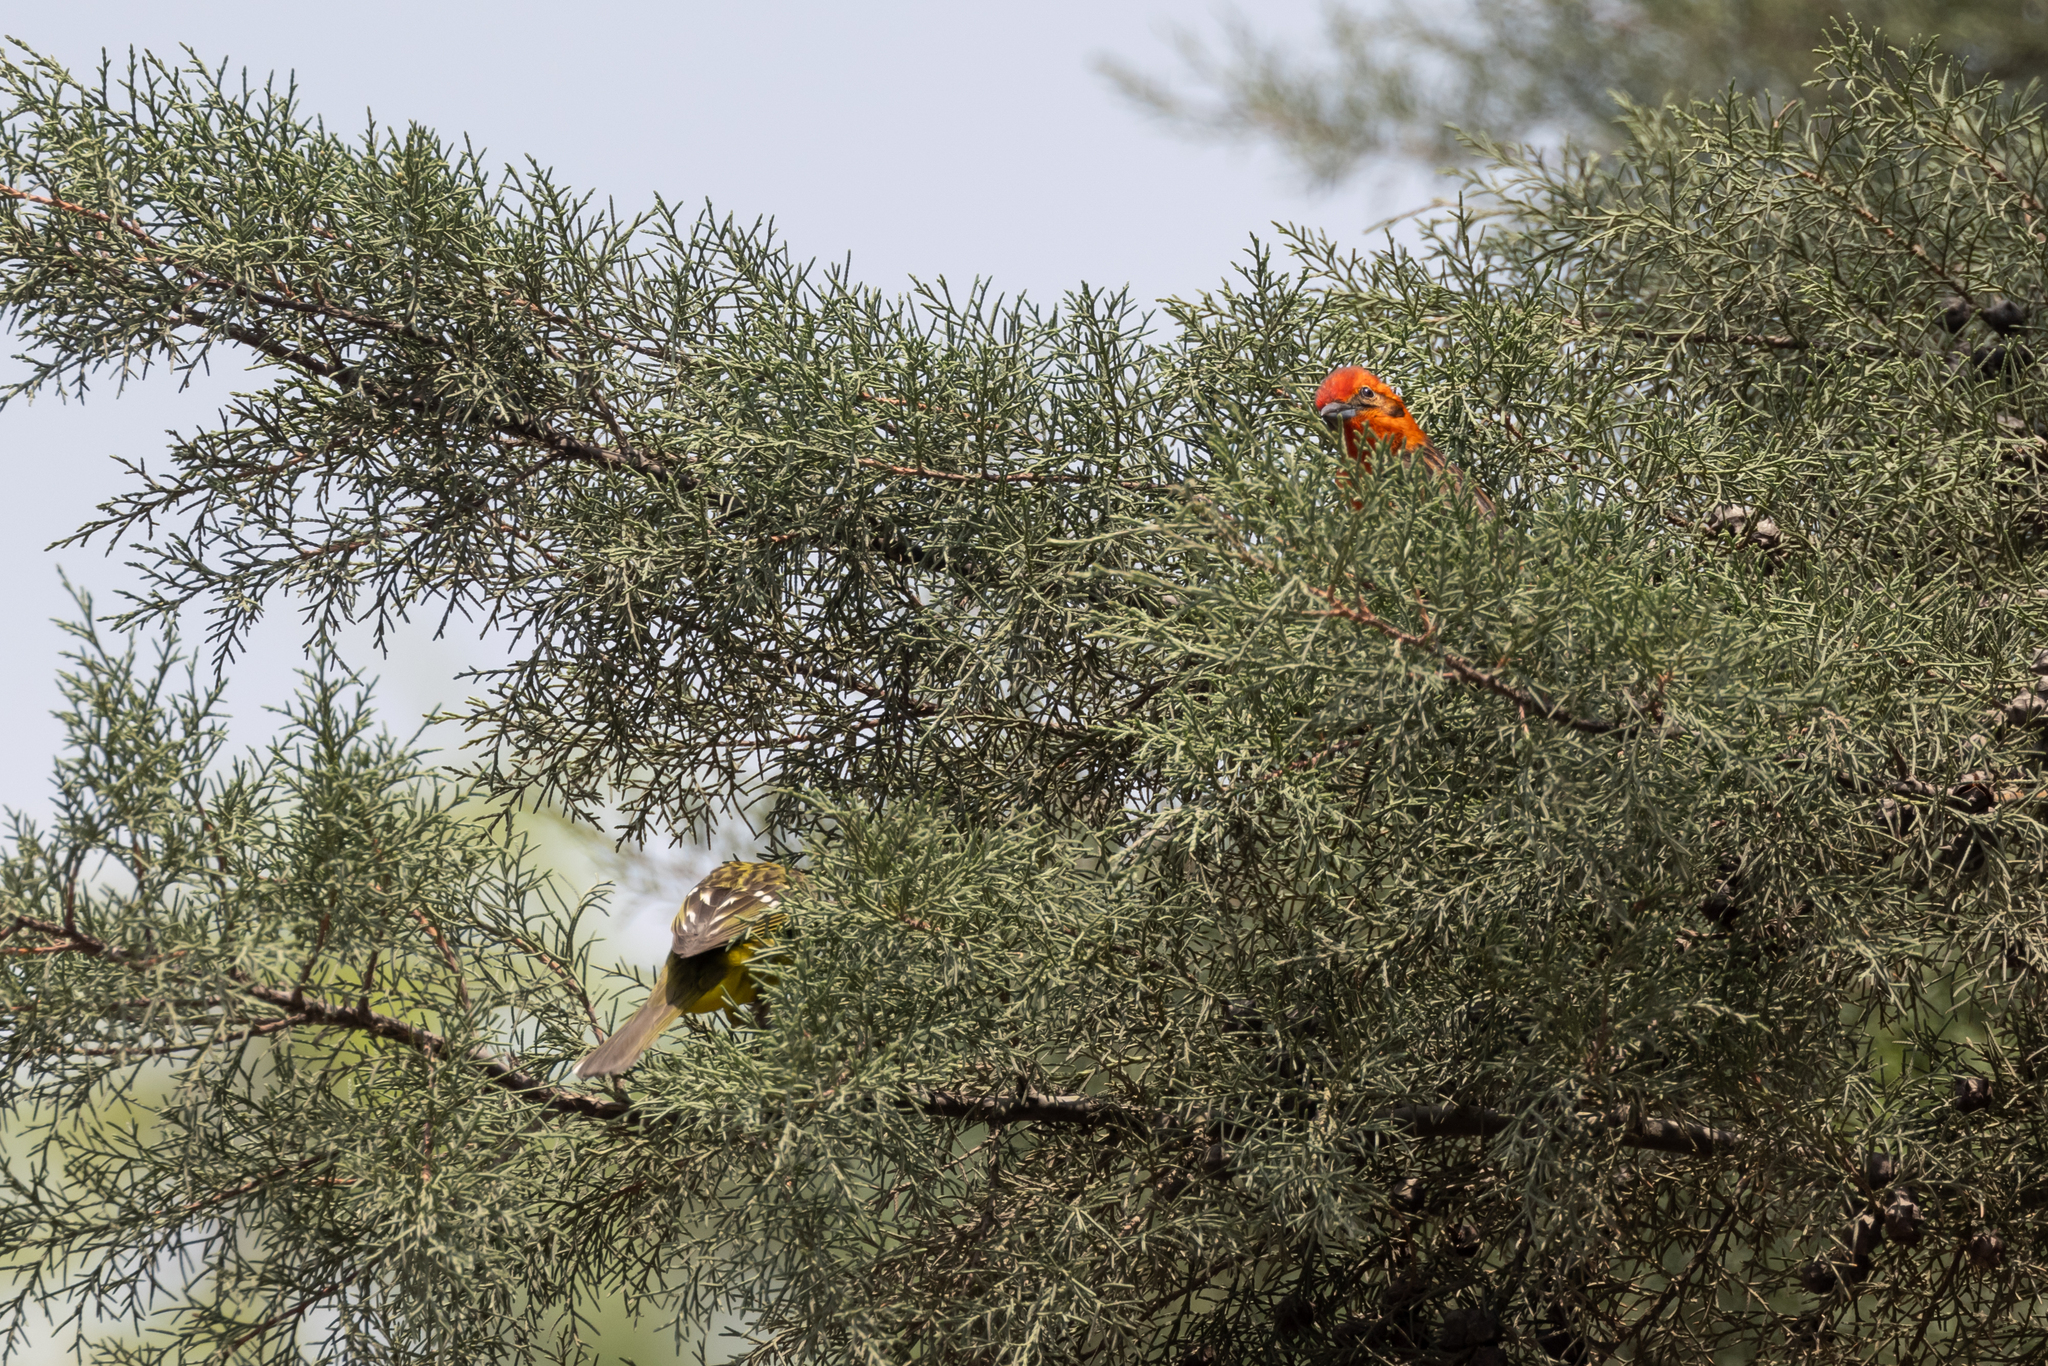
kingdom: Animalia
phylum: Chordata
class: Aves
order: Passeriformes
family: Cardinalidae
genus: Piranga
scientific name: Piranga bidentata
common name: Flame-colored tanager
